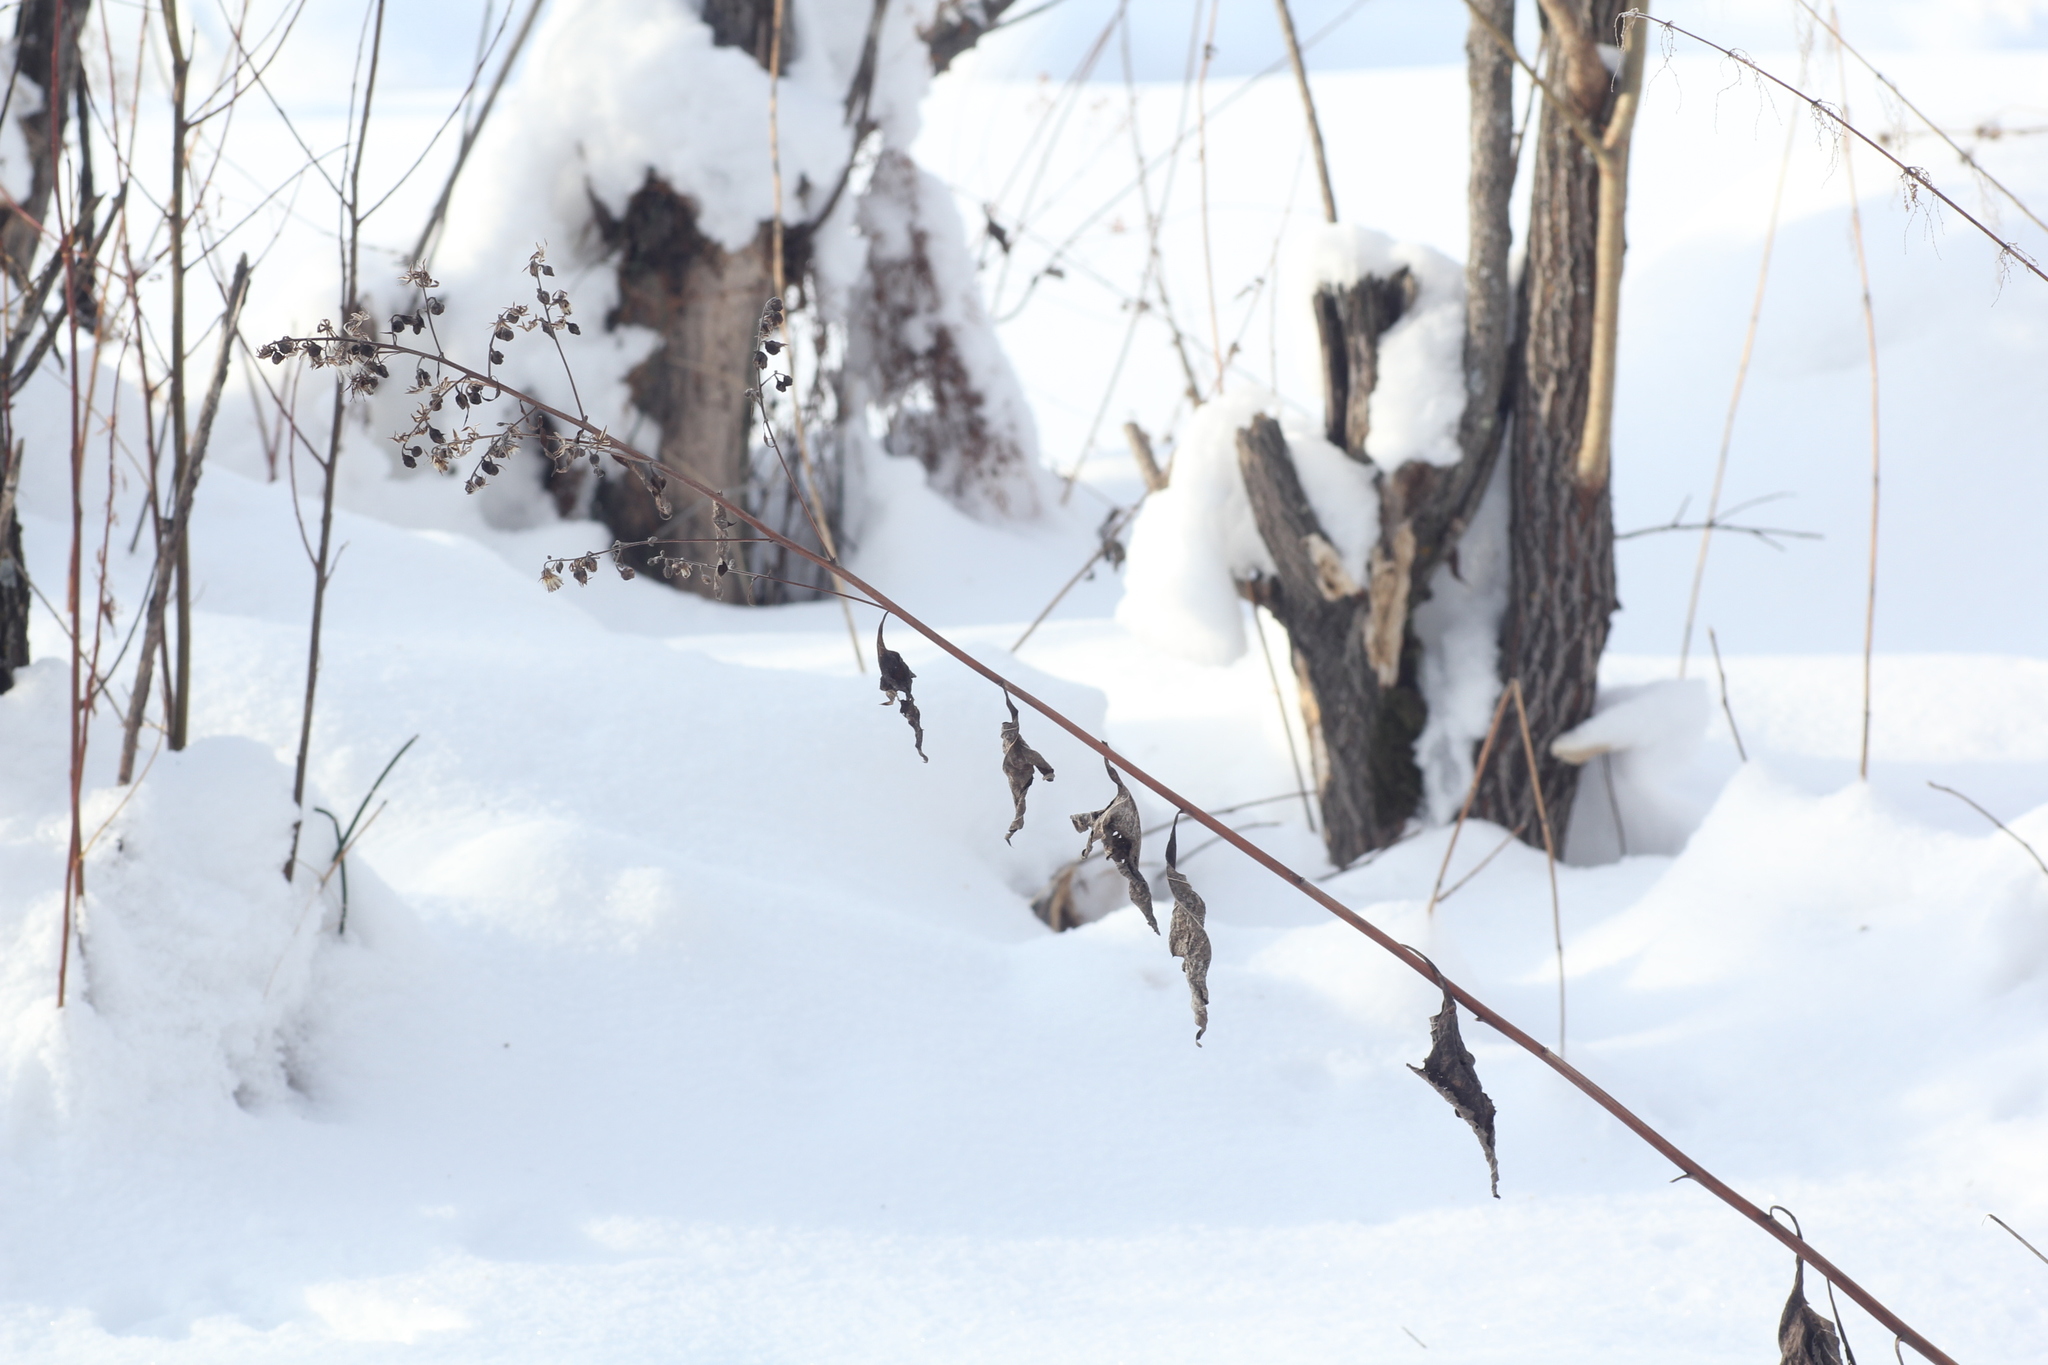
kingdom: Plantae
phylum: Tracheophyta
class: Magnoliopsida
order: Asterales
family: Asteraceae
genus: Parasenecio
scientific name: Parasenecio hastatus
